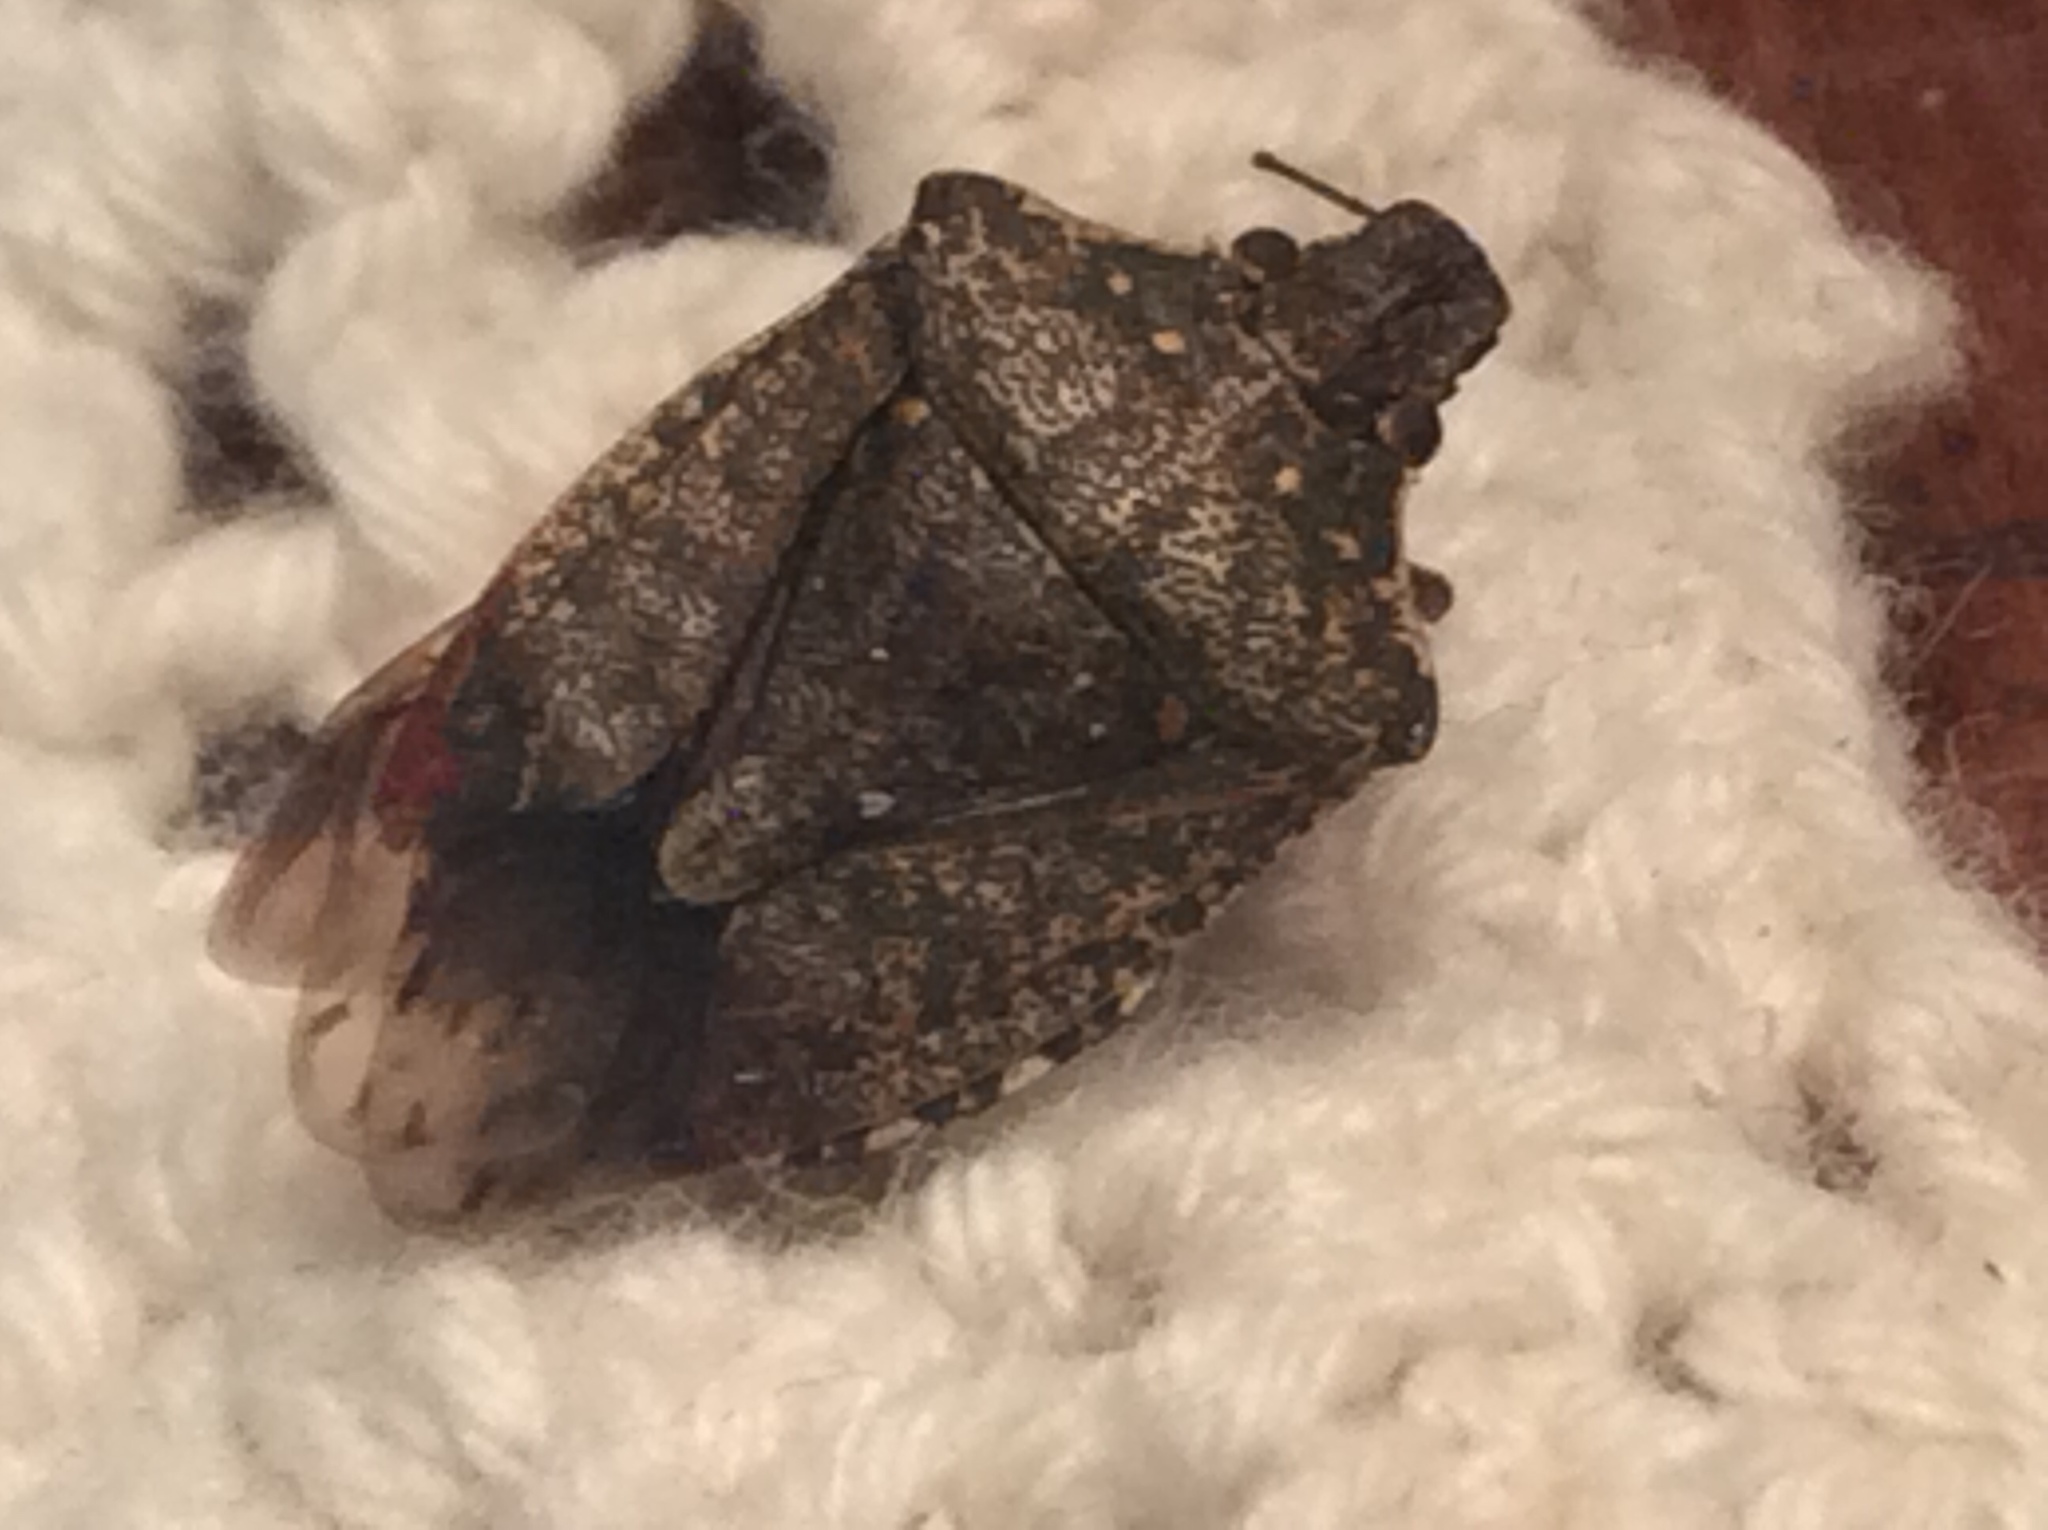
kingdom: Animalia
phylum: Arthropoda
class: Insecta
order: Hemiptera
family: Pentatomidae
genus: Halyomorpha
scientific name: Halyomorpha halys
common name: Brown marmorated stink bug
